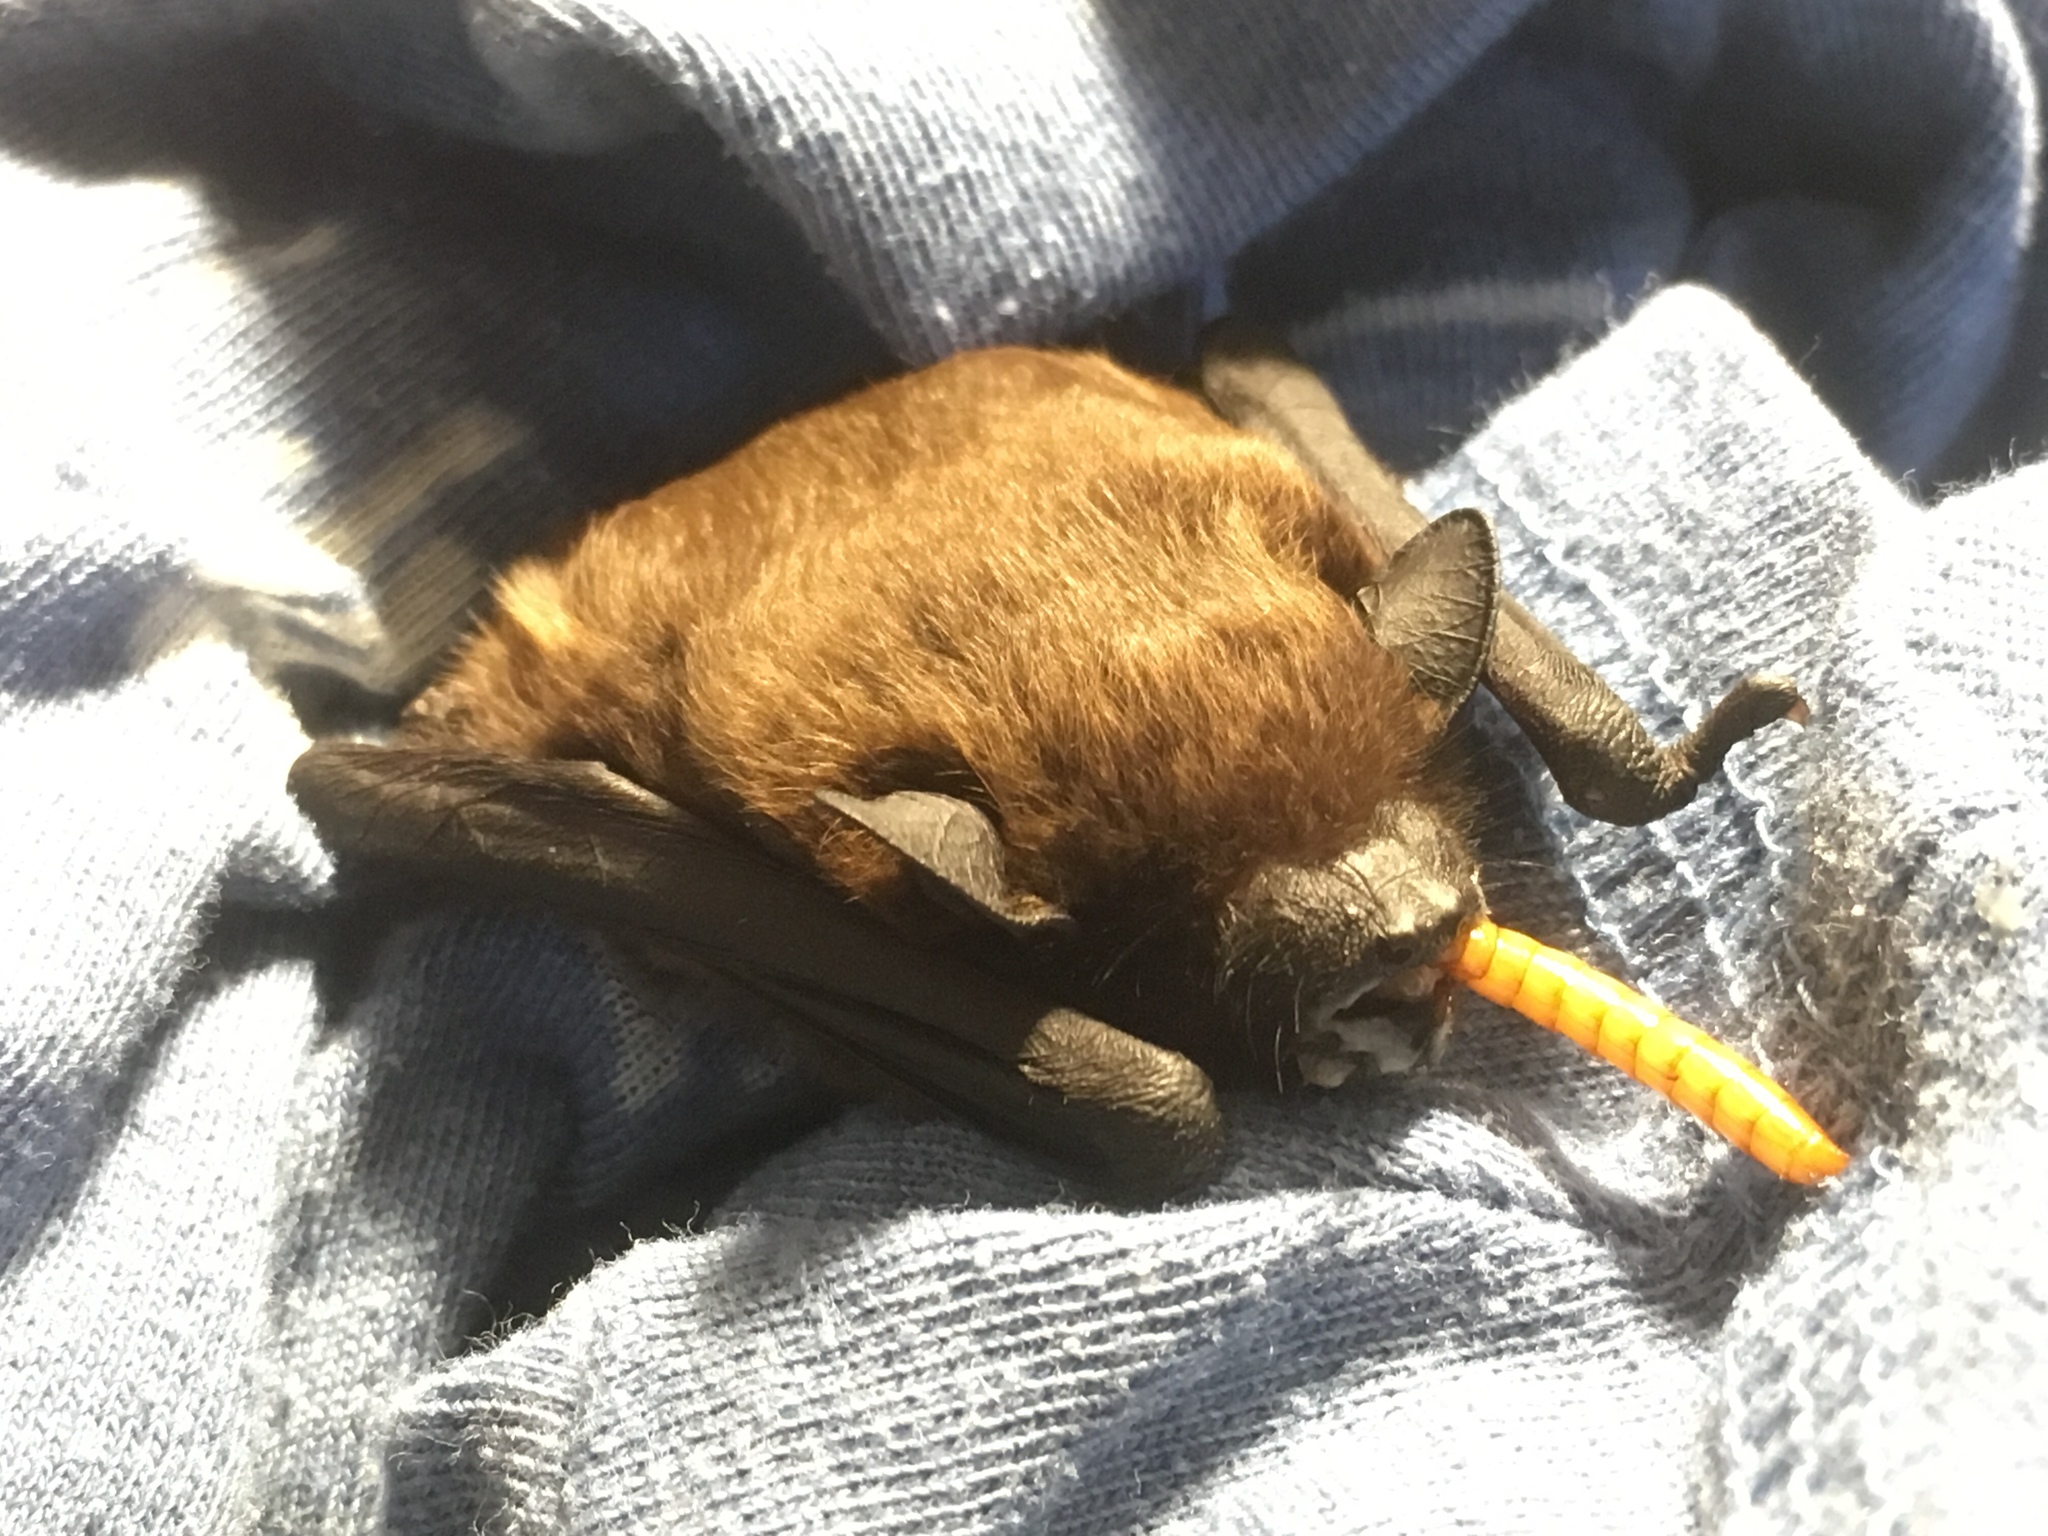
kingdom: Animalia
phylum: Chordata
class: Mammalia
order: Chiroptera
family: Vespertilionidae
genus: Nycticeius
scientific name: Nycticeius humeralis
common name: Evening bat
